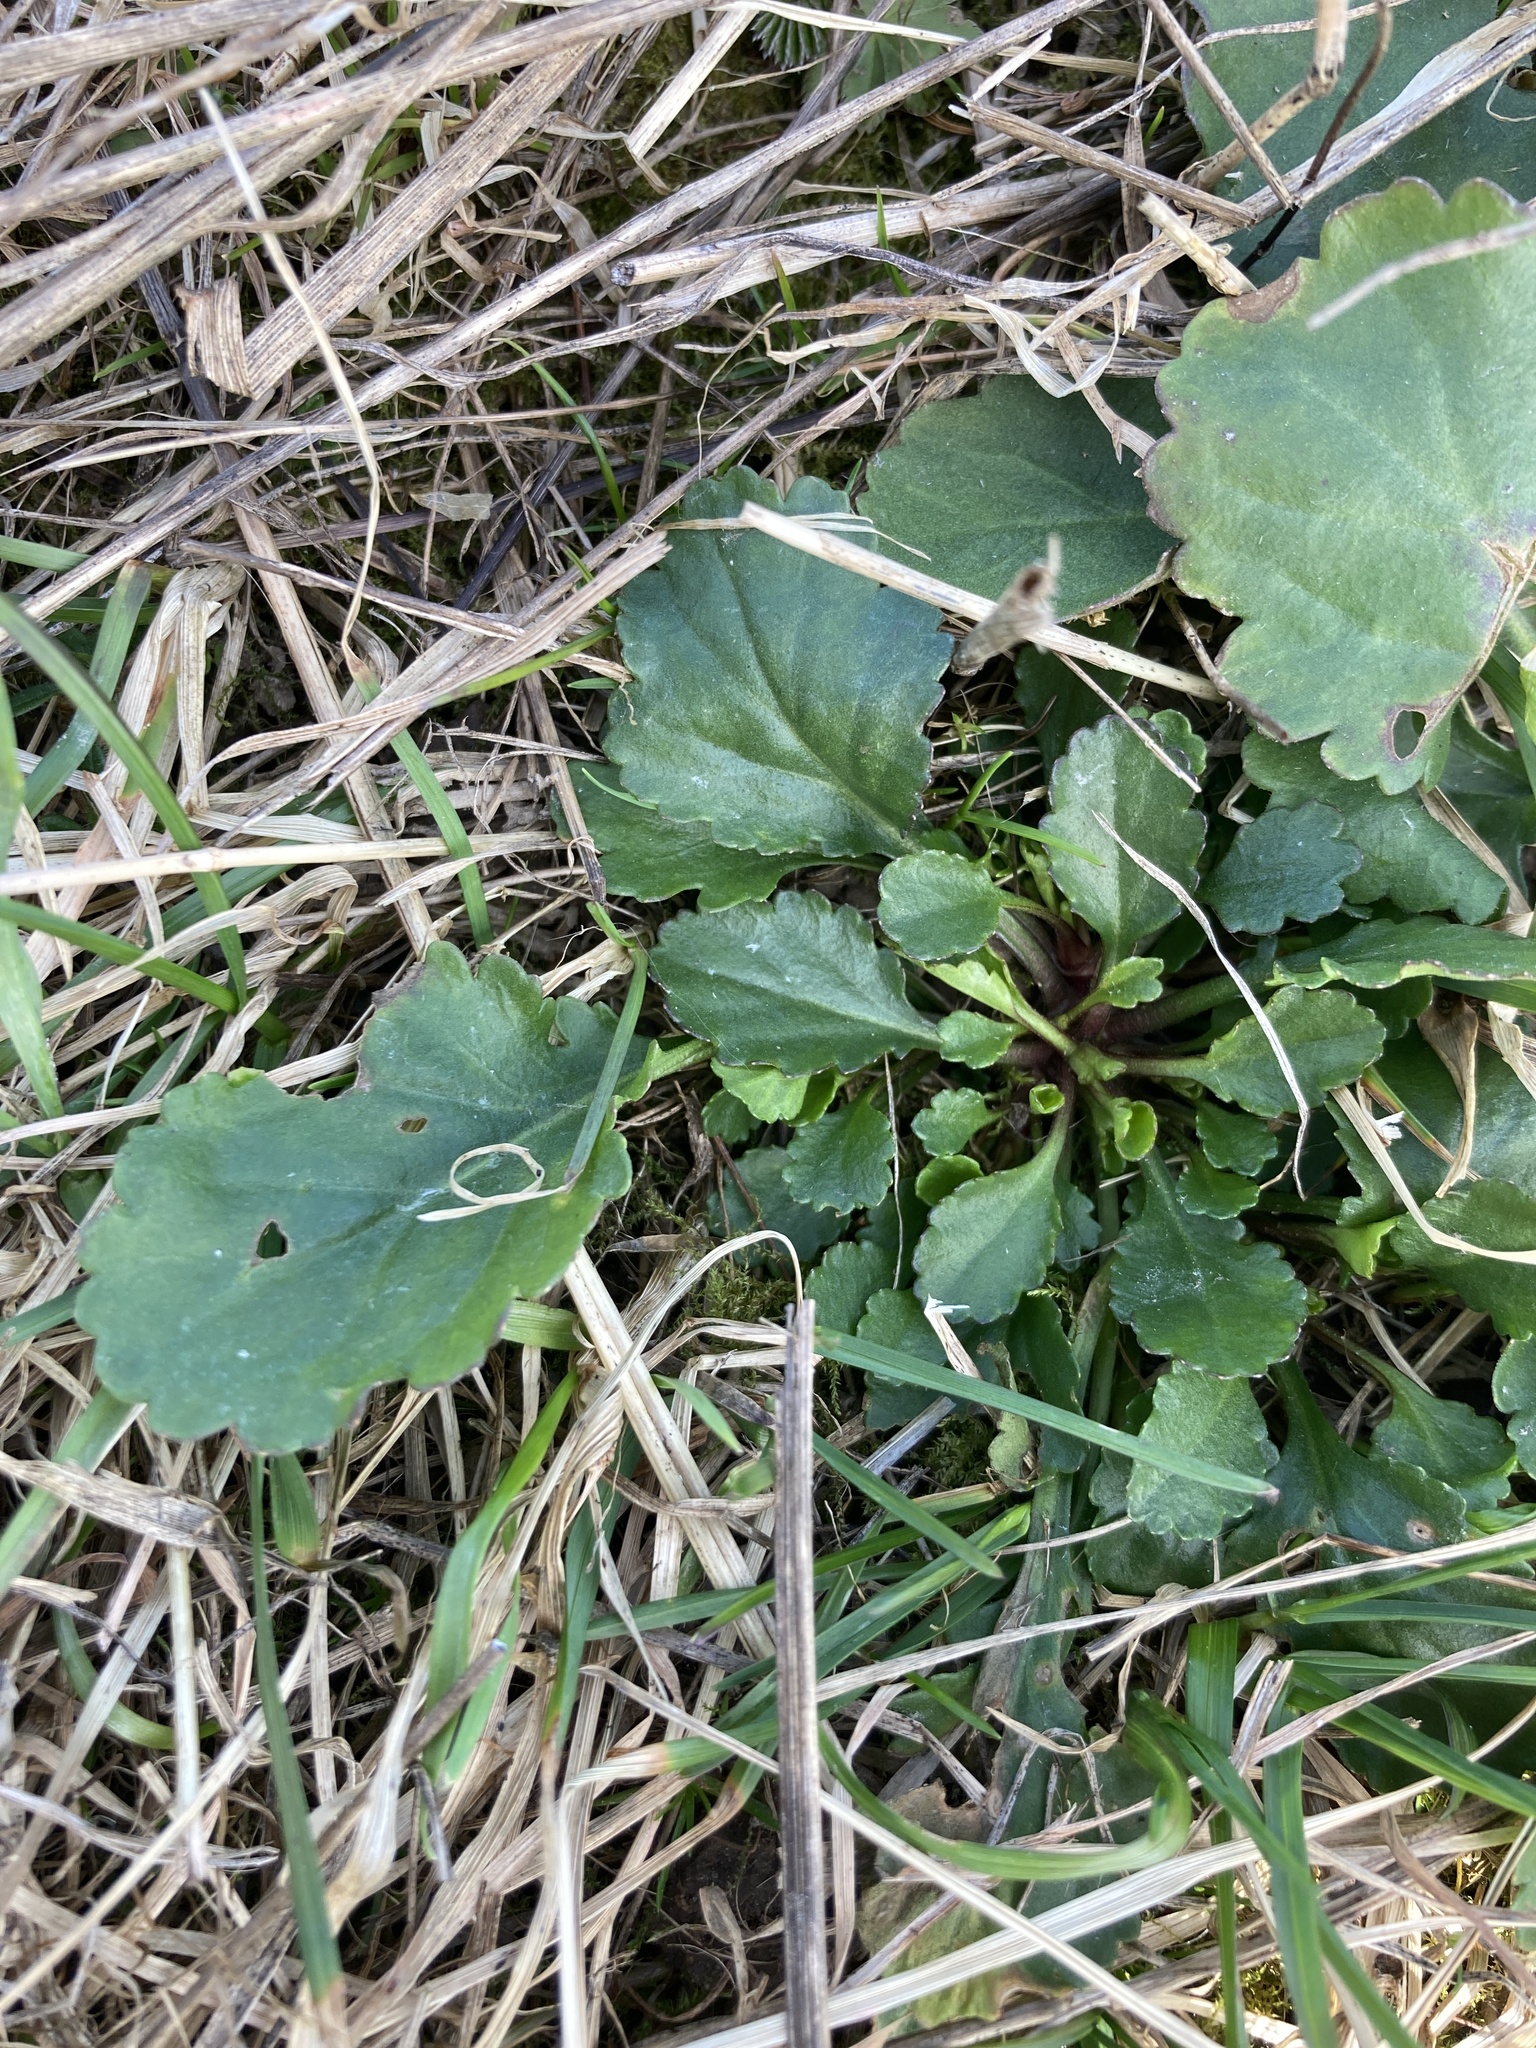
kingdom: Plantae
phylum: Tracheophyta
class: Magnoliopsida
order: Asterales
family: Asteraceae
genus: Leucanthemum
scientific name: Leucanthemum vulgare
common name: Oxeye daisy
